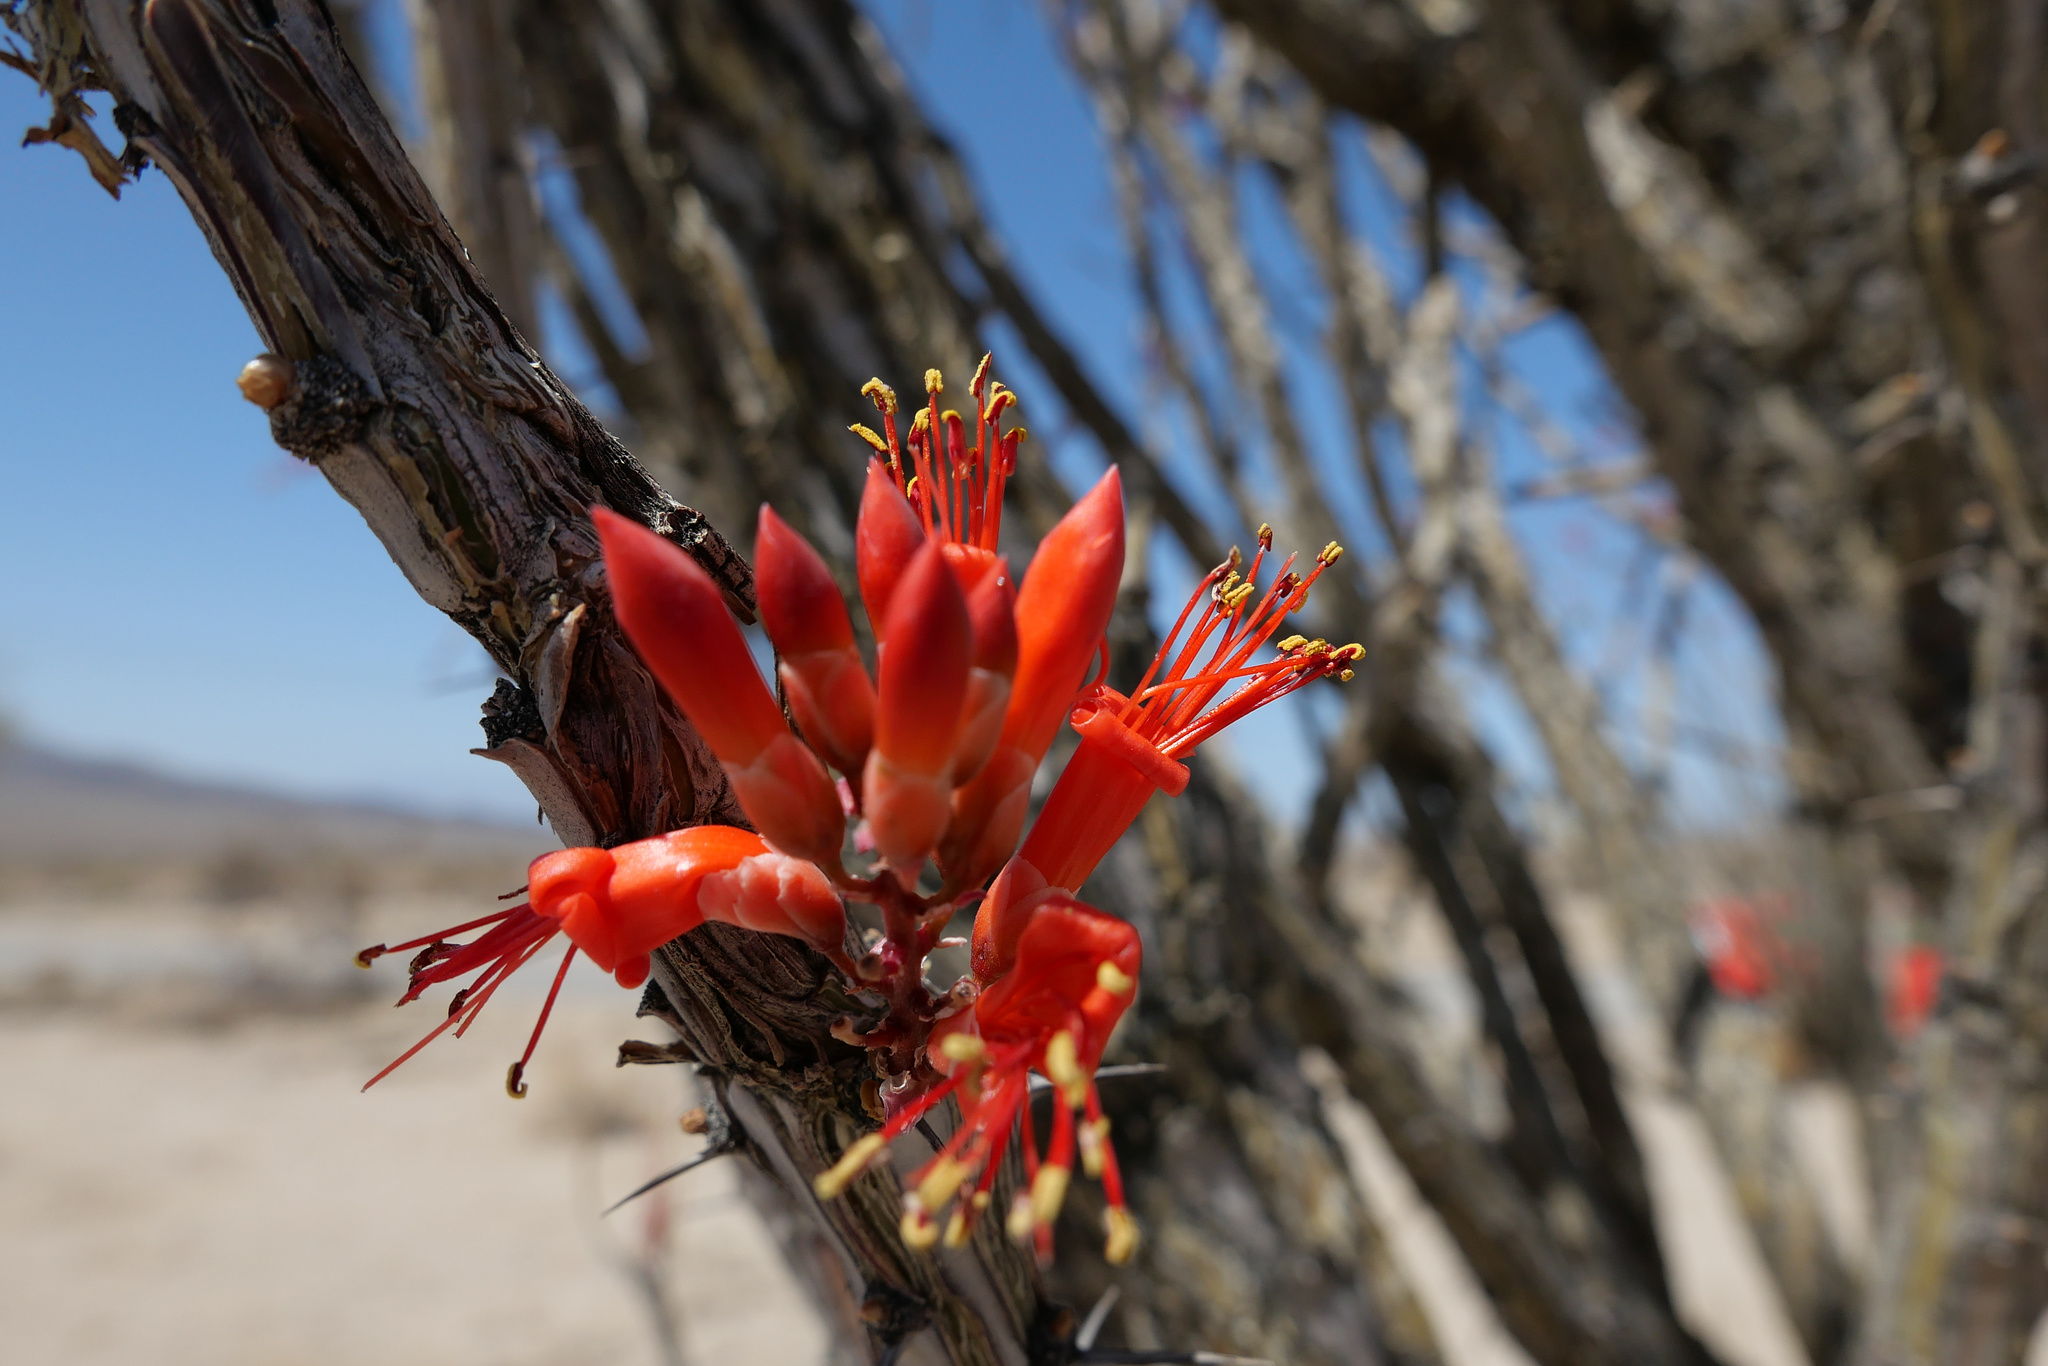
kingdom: Plantae
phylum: Tracheophyta
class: Magnoliopsida
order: Ericales
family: Fouquieriaceae
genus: Fouquieria
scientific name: Fouquieria splendens
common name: Vine-cactus
